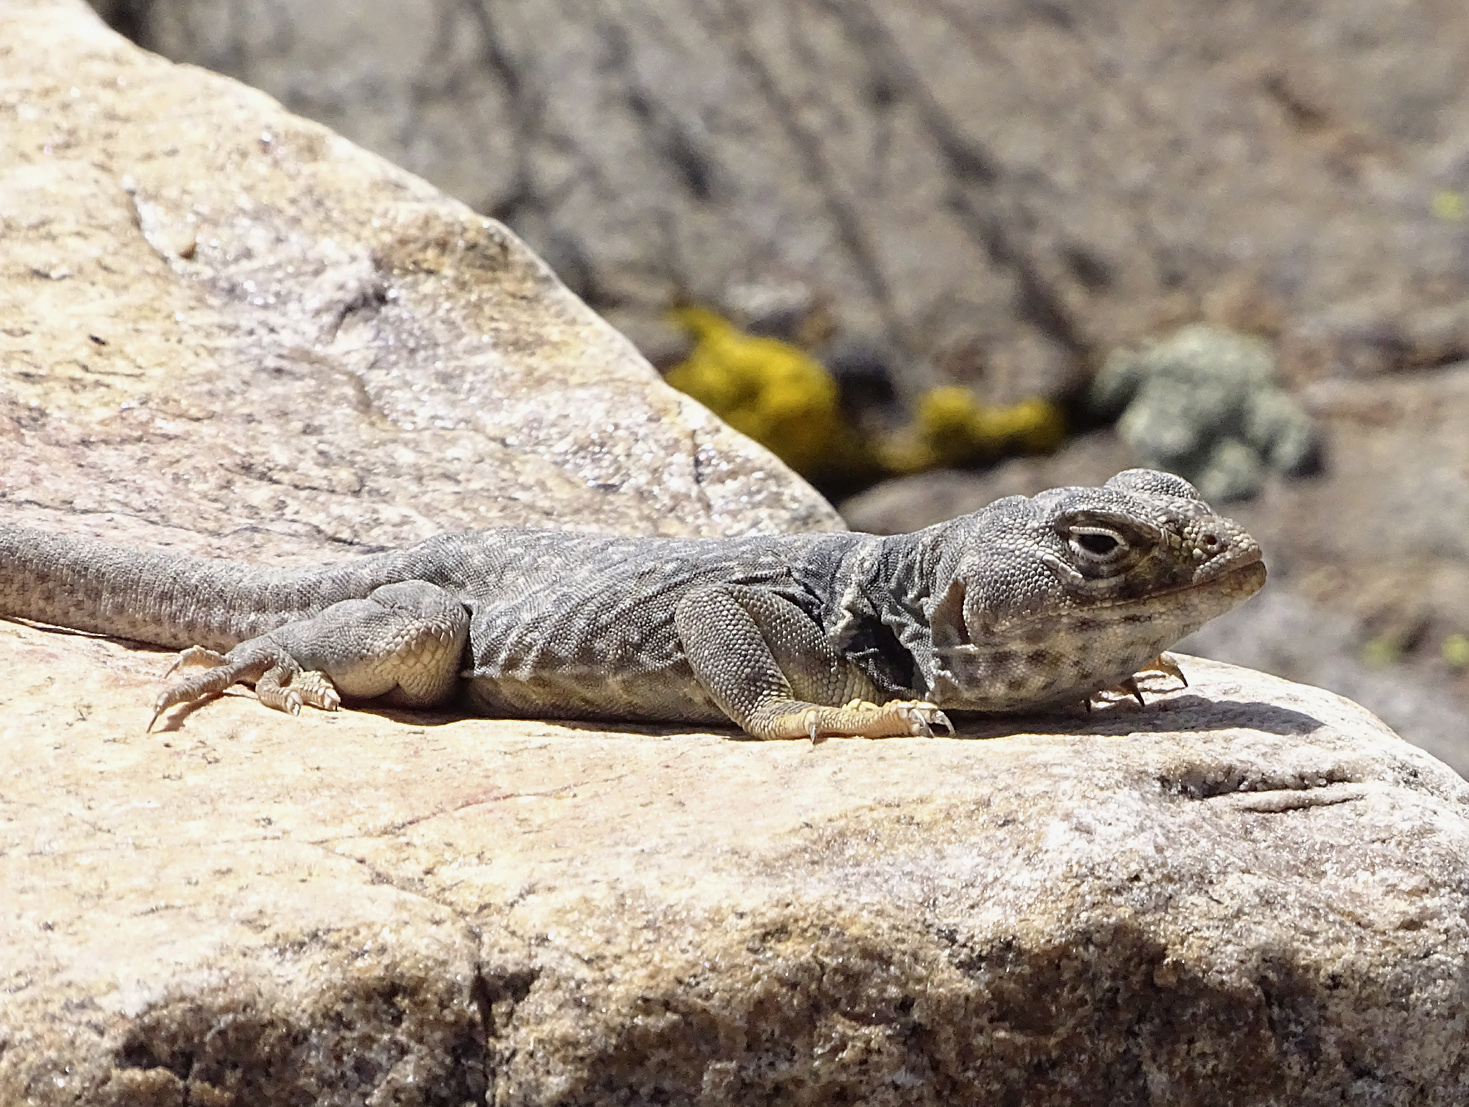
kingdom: Animalia
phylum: Chordata
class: Squamata
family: Crotaphytidae
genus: Crotaphytus
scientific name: Crotaphytus bicinctores
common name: Mojave black-collared lizard
